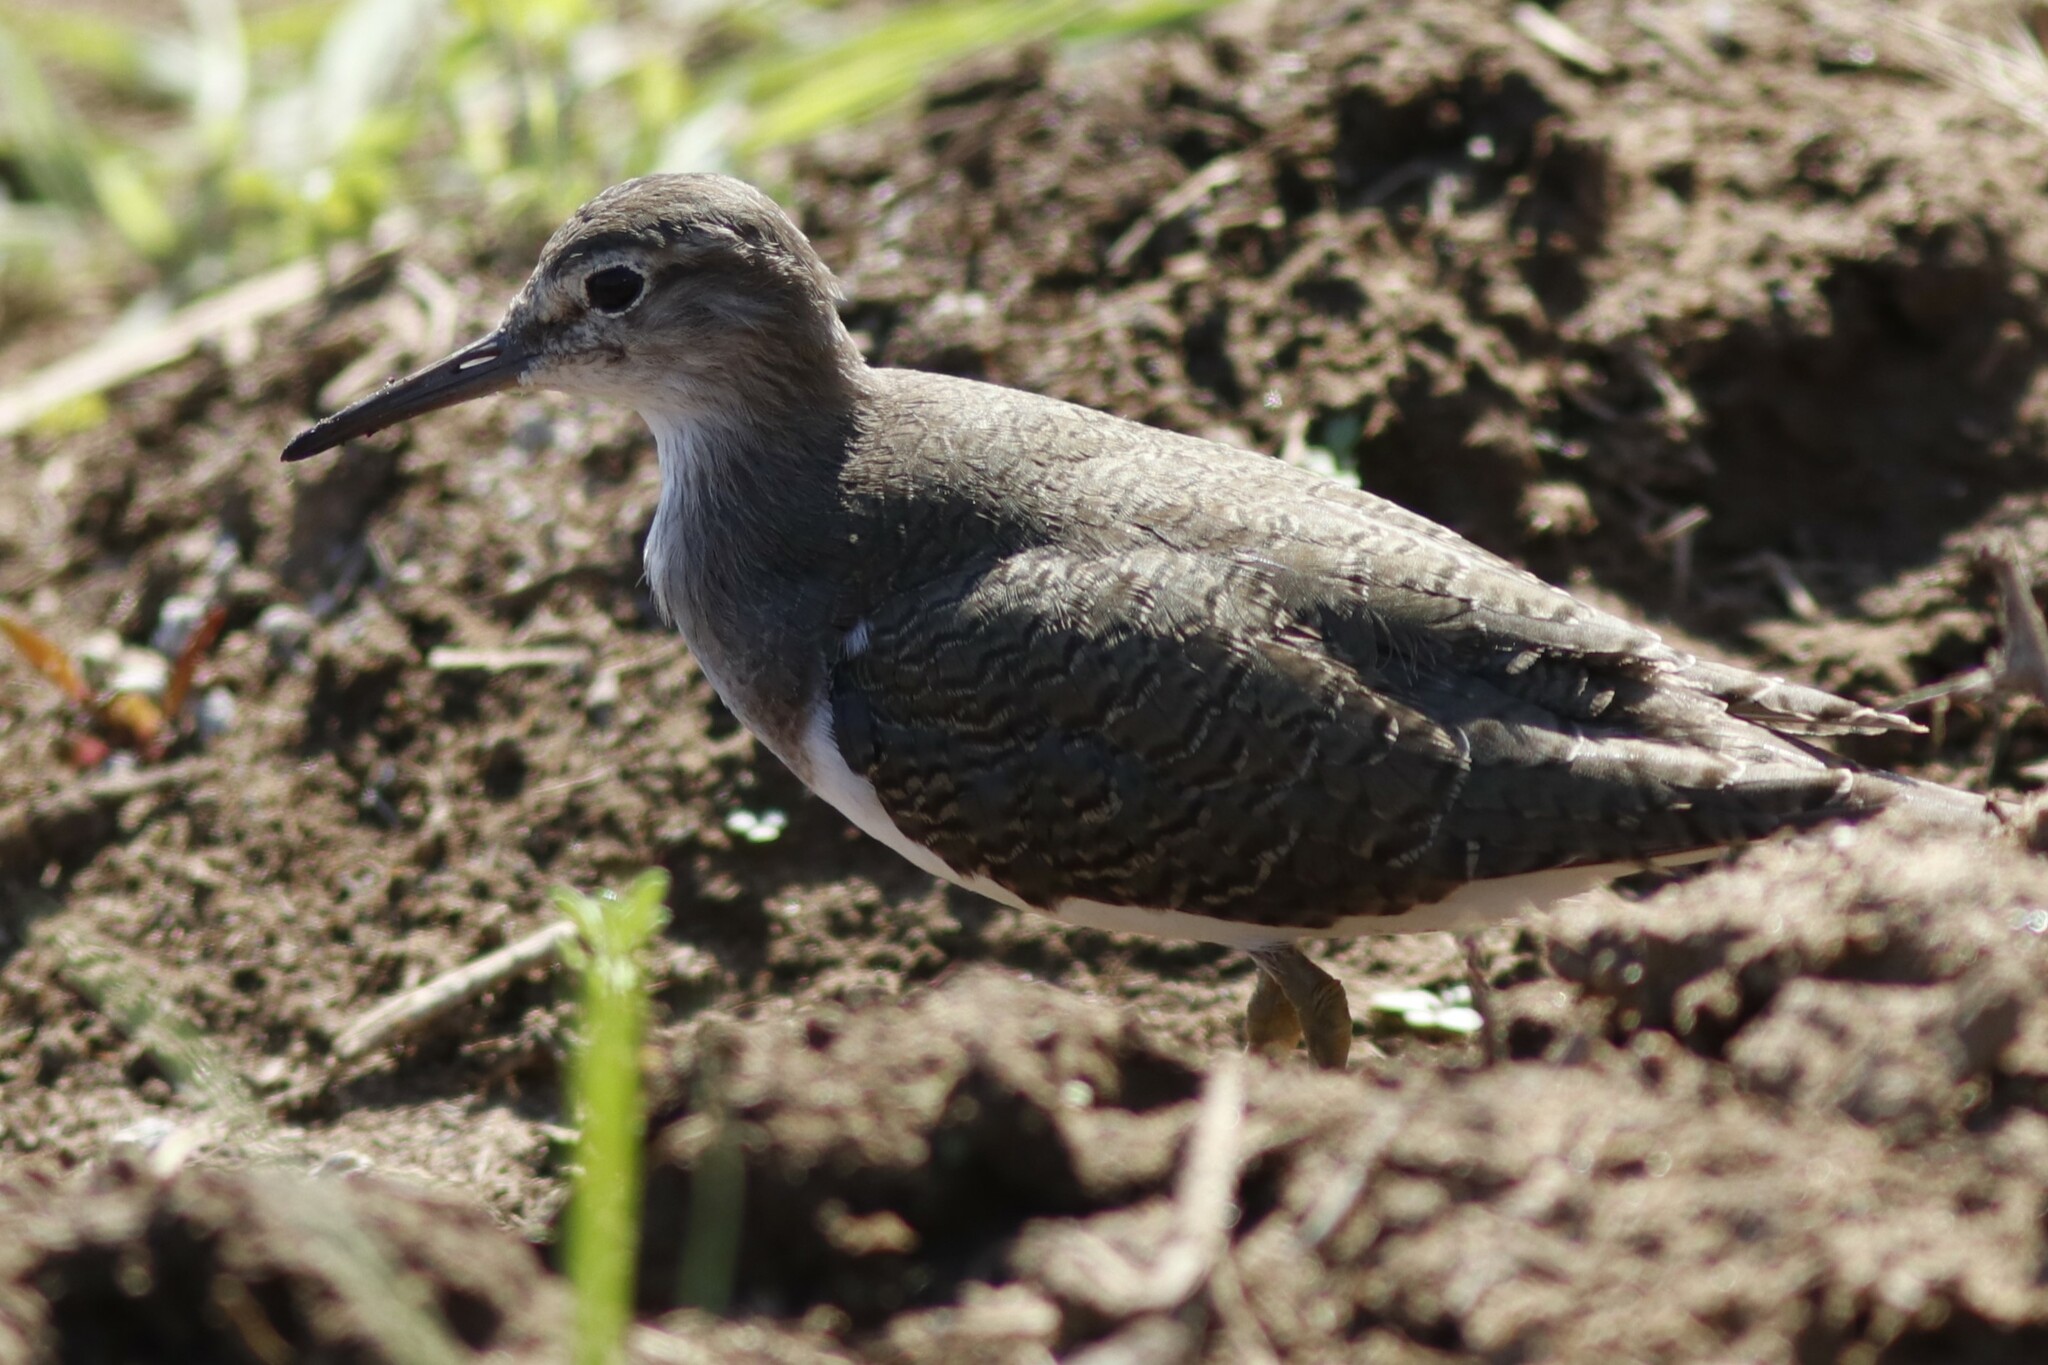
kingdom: Animalia
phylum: Chordata
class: Aves
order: Charadriiformes
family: Scolopacidae
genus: Actitis
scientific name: Actitis hypoleucos
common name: Common sandpiper
